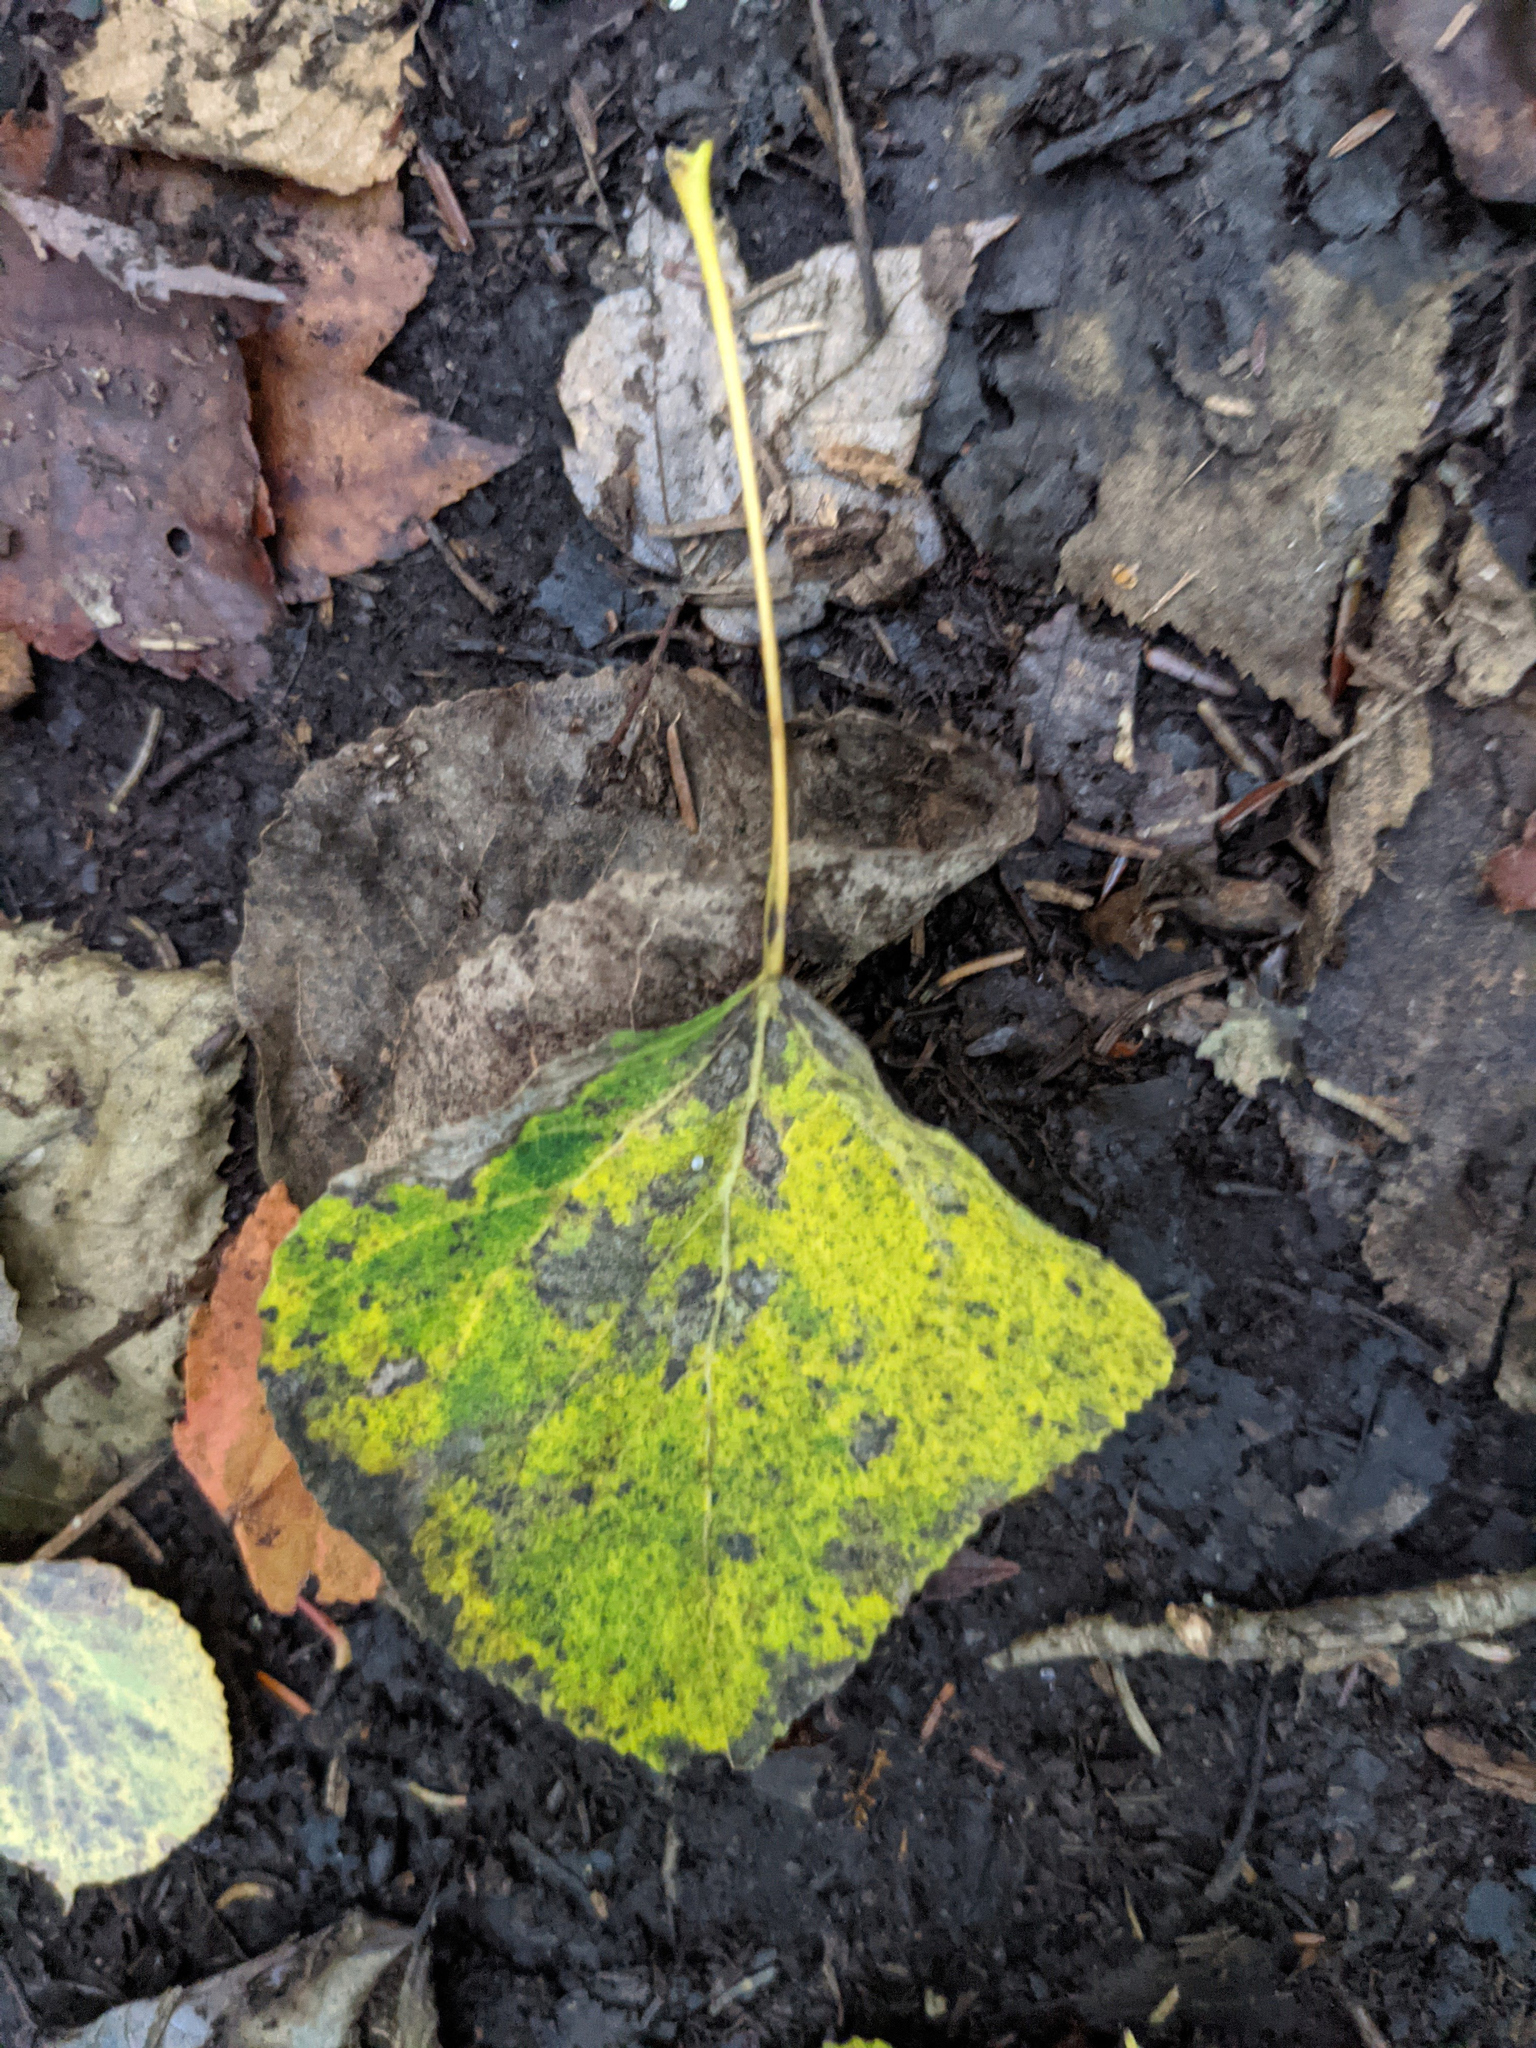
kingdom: Plantae
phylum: Tracheophyta
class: Magnoliopsida
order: Malpighiales
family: Salicaceae
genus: Populus
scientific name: Populus tremuloides
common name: Quaking aspen
